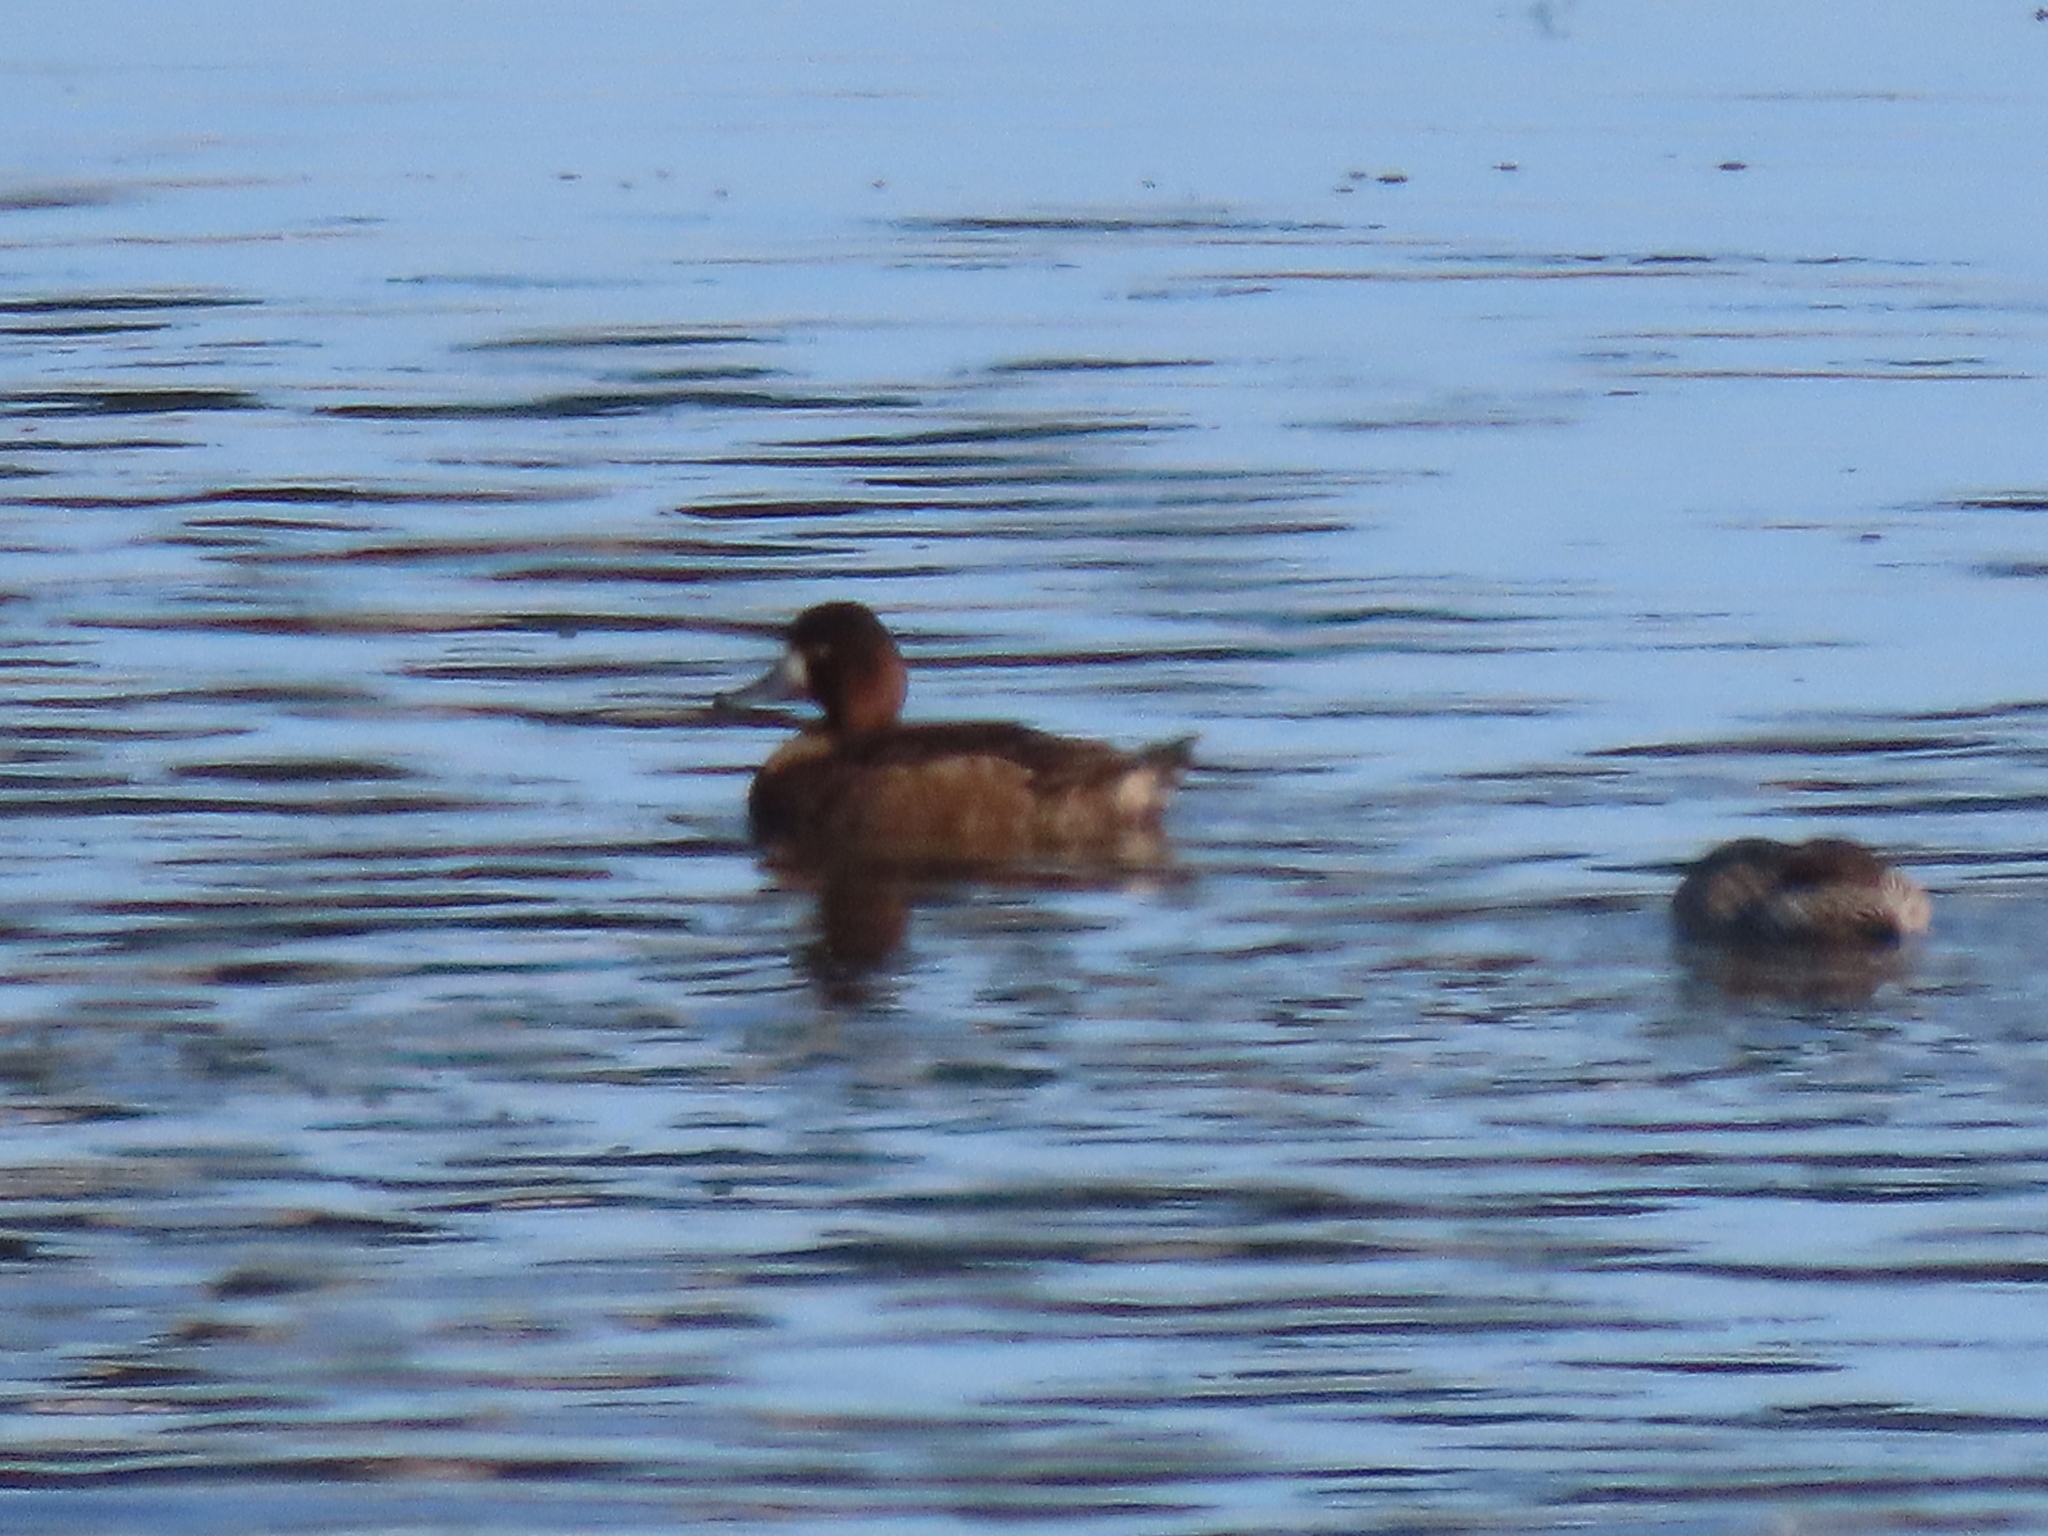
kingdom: Animalia
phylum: Chordata
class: Aves
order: Anseriformes
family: Anatidae
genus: Aythya
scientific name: Aythya affinis
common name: Lesser scaup
